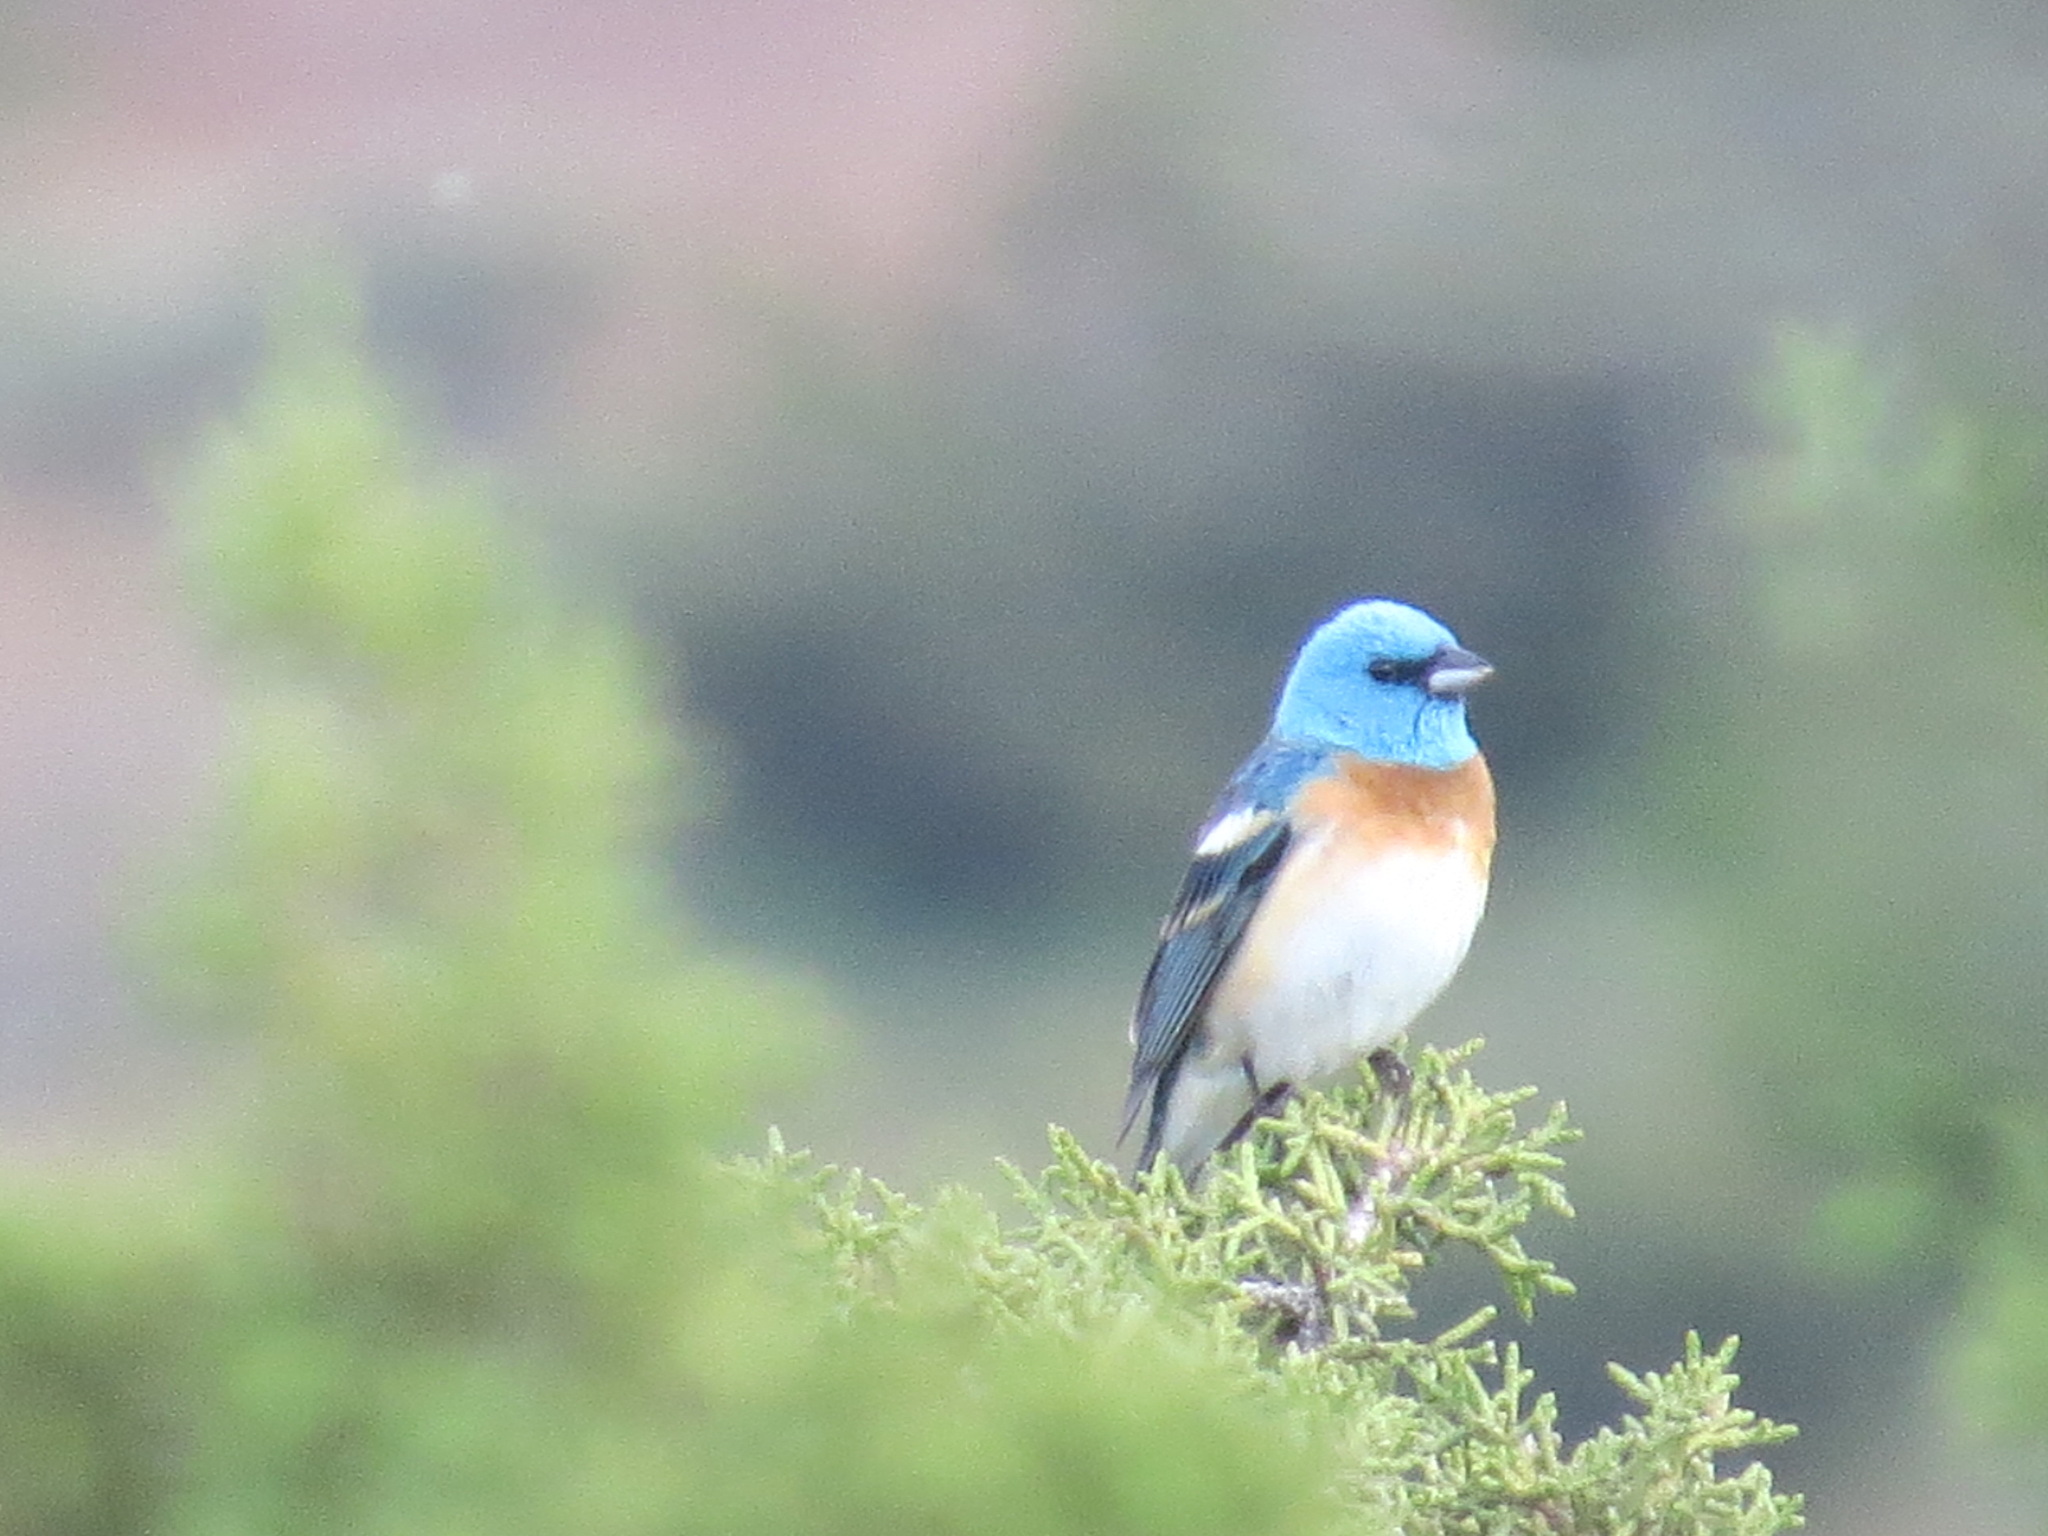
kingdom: Animalia
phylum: Chordata
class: Aves
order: Passeriformes
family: Cardinalidae
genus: Passerina
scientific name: Passerina amoena
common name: Lazuli bunting
